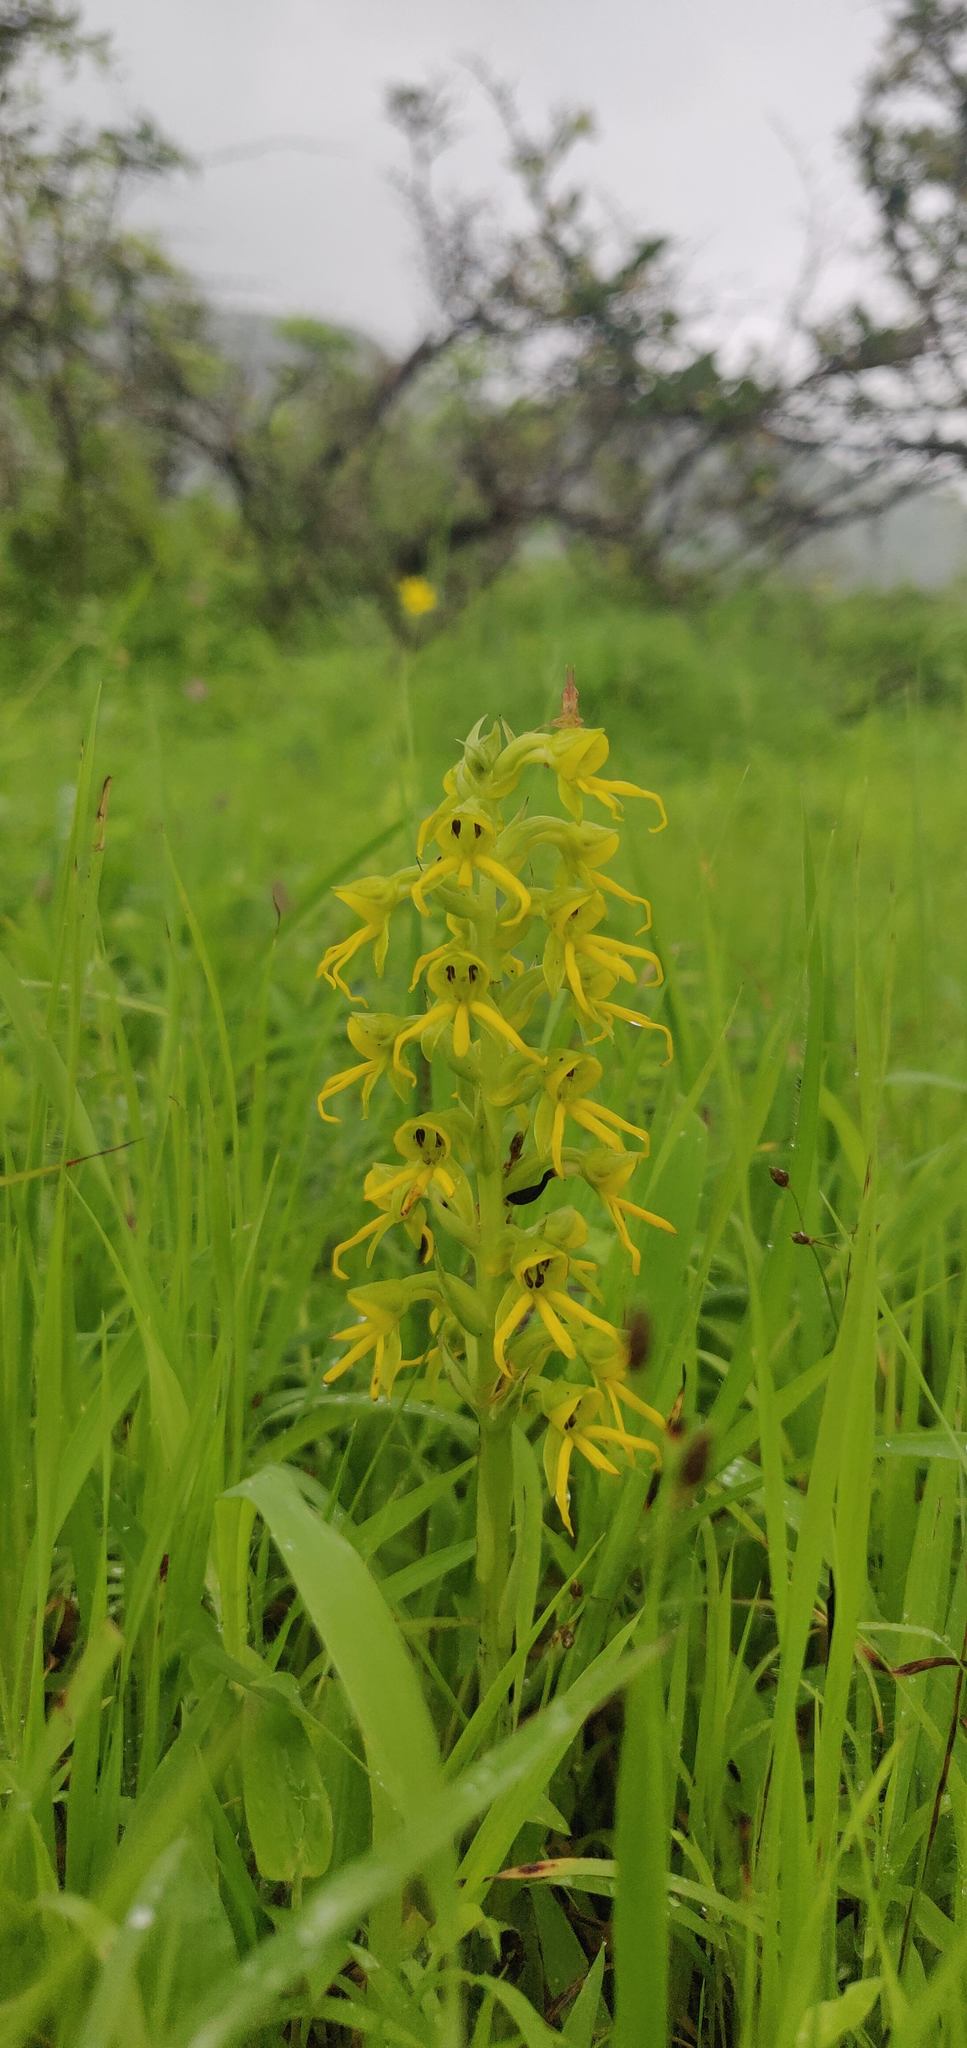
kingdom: Plantae
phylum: Tracheophyta
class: Liliopsida
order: Asparagales
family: Orchidaceae
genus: Habenaria
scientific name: Habenaria marginata
